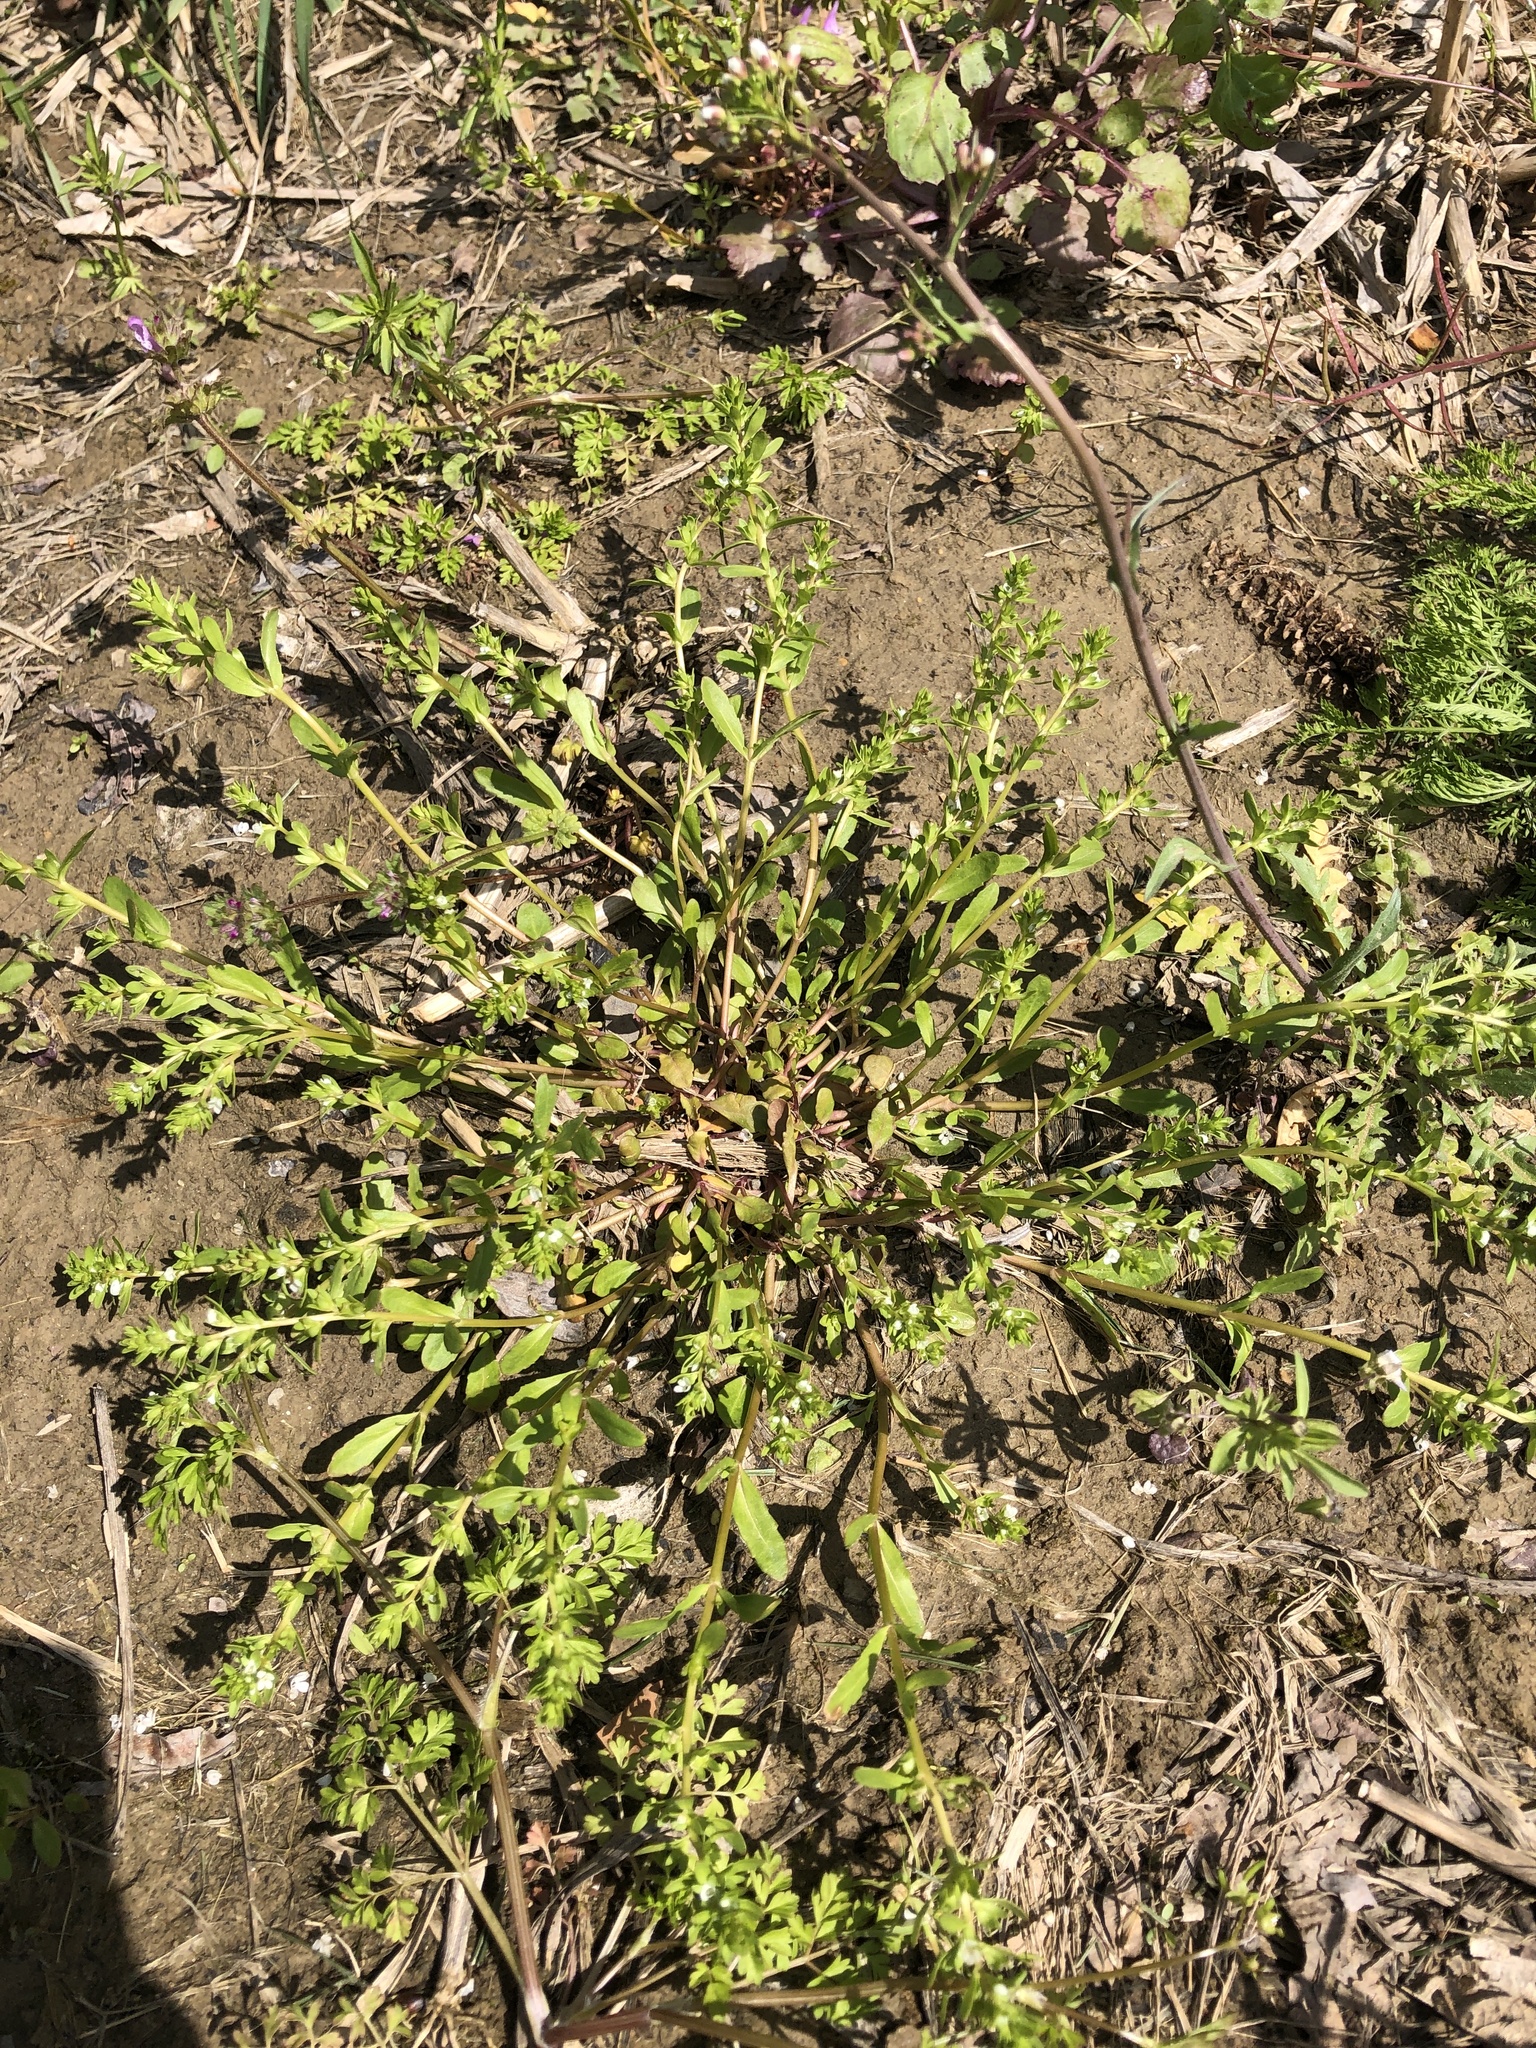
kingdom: Plantae
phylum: Tracheophyta
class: Magnoliopsida
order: Lamiales
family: Plantaginaceae
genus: Veronica
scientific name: Veronica peregrina
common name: Neckweed
